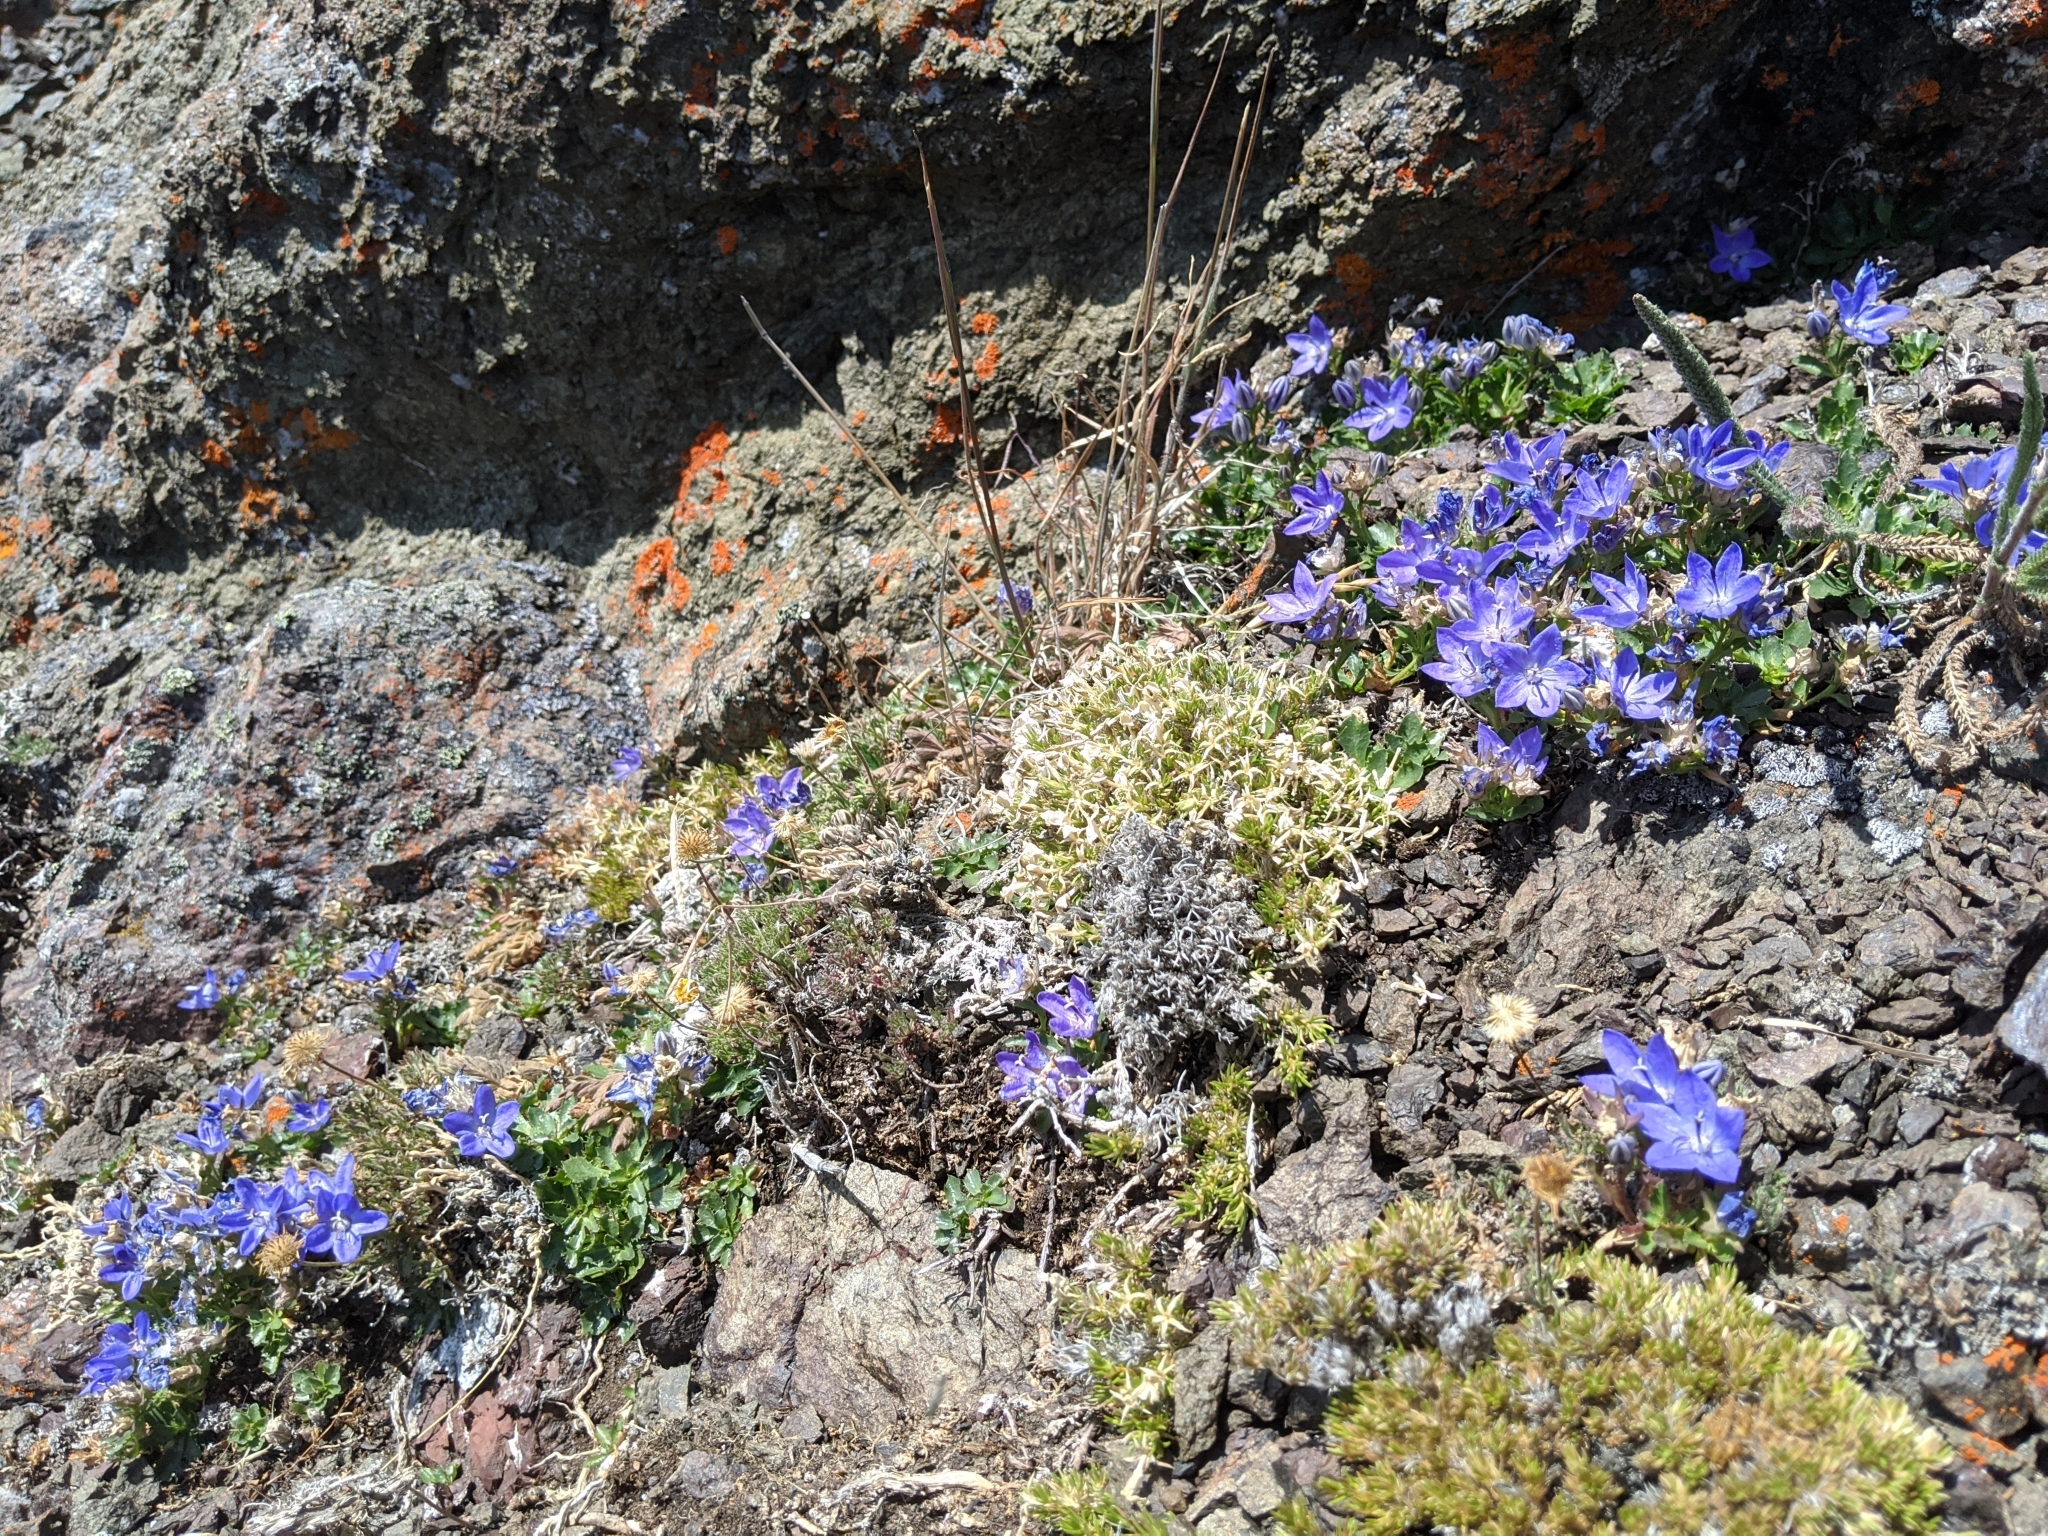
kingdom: Plantae
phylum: Tracheophyta
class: Magnoliopsida
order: Asterales
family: Campanulaceae
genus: Campanula
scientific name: Campanula piperi
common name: Olympic bellflower
